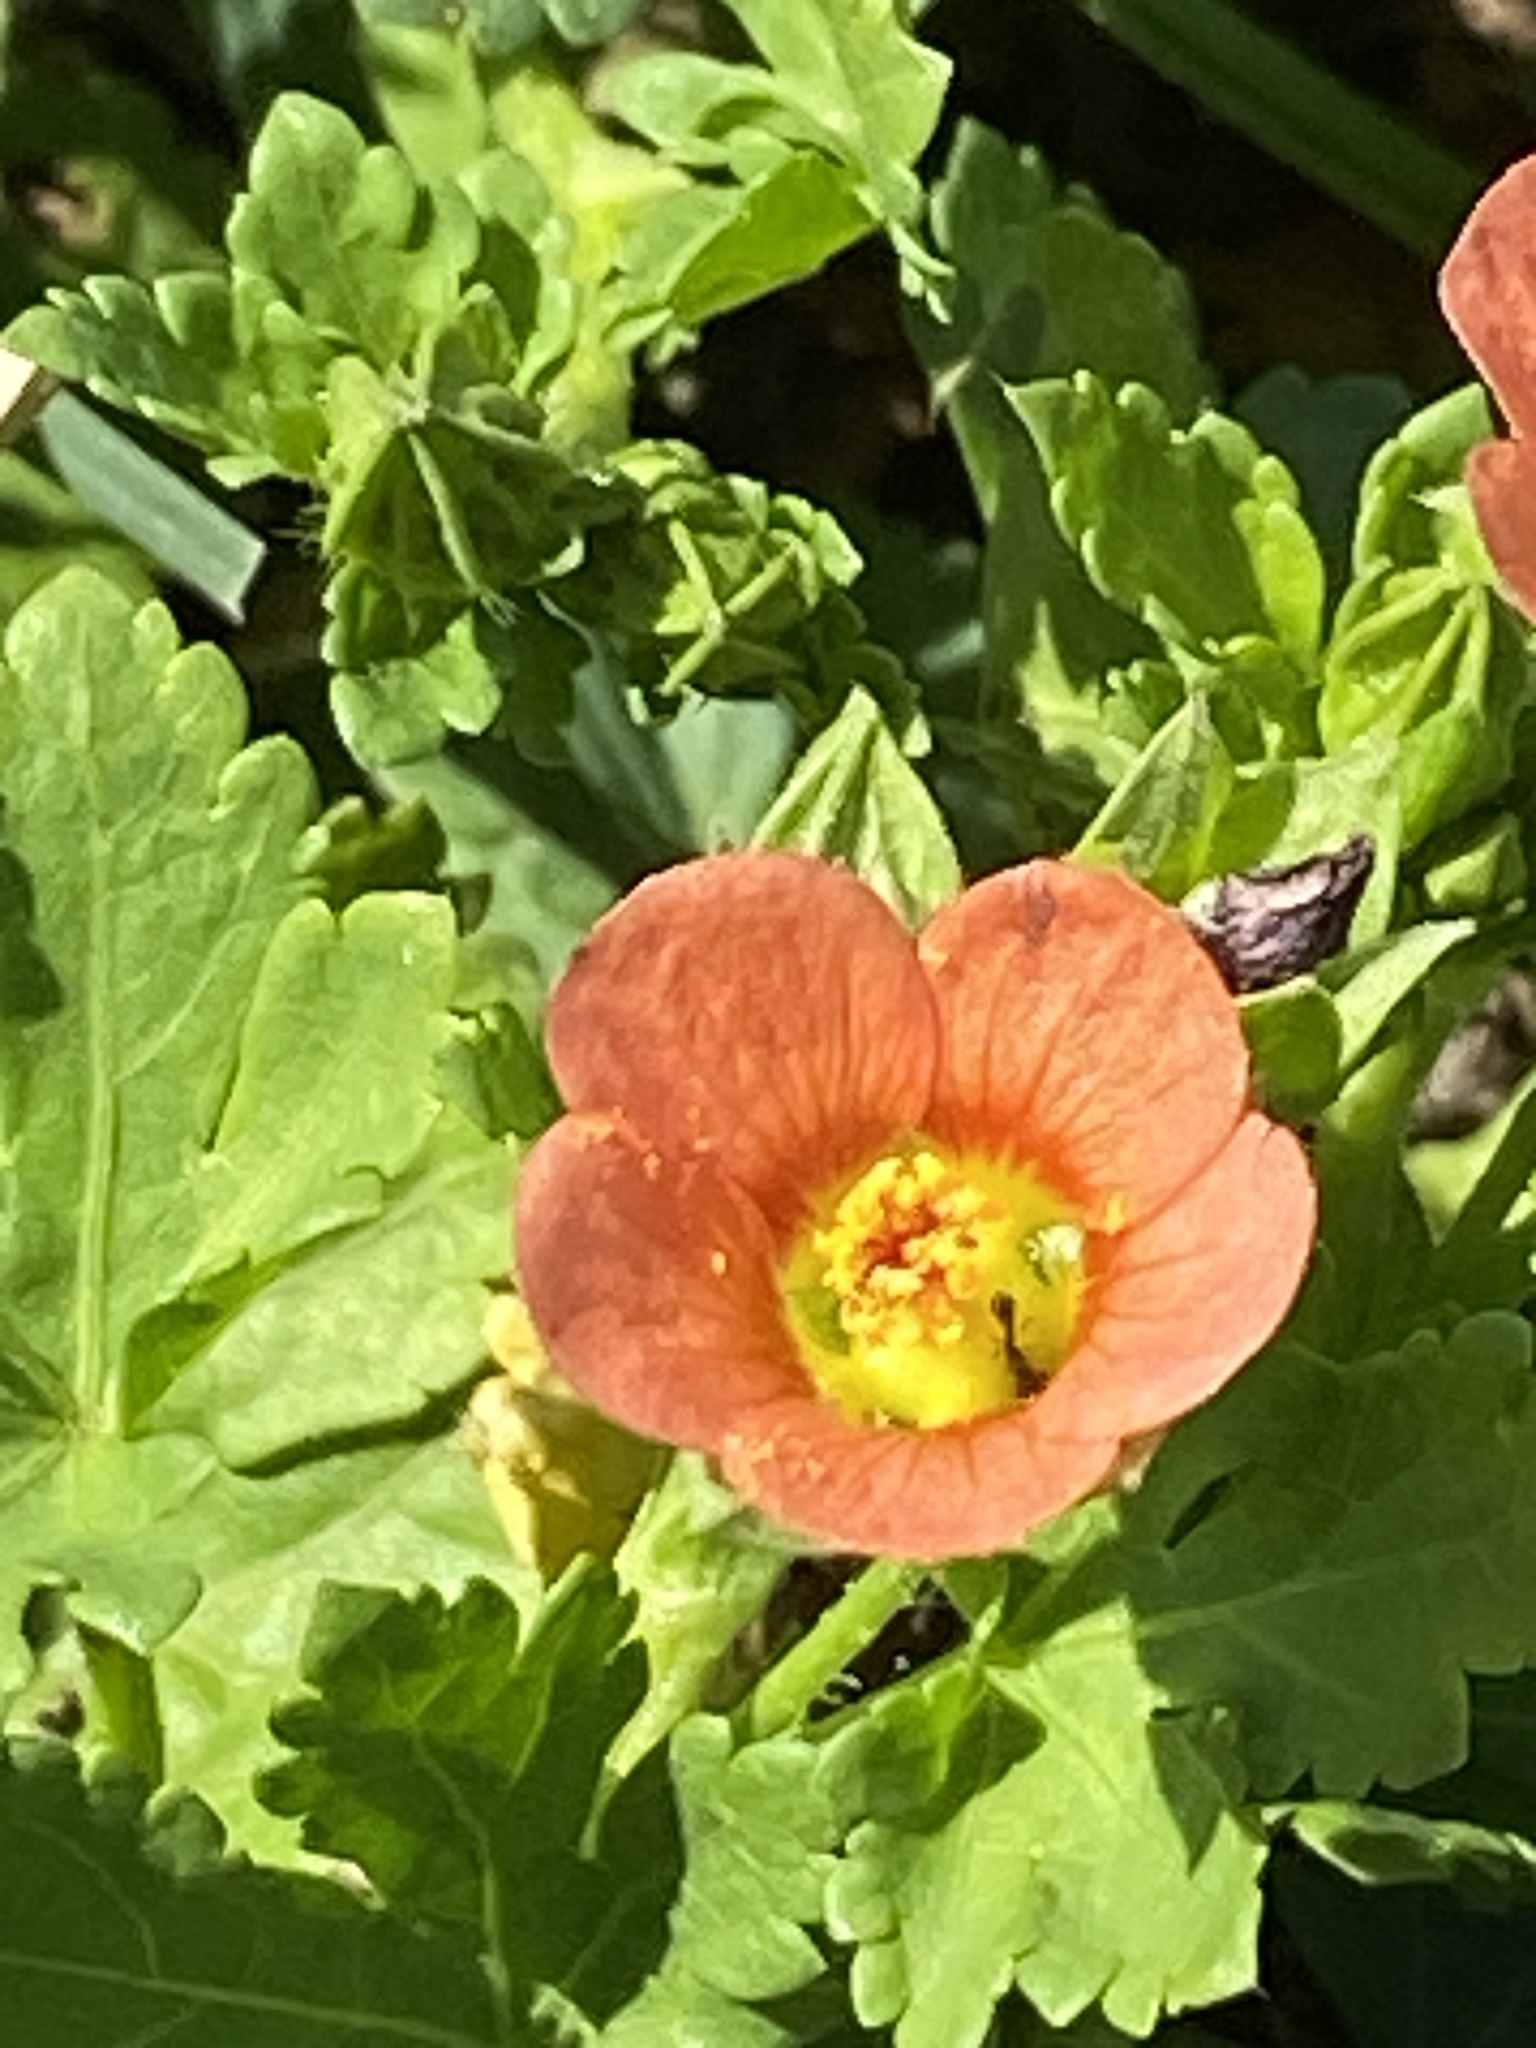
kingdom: Plantae
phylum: Tracheophyta
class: Magnoliopsida
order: Malvales
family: Malvaceae
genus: Modiola
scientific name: Modiola caroliniana
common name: Carolina bristlemallow
